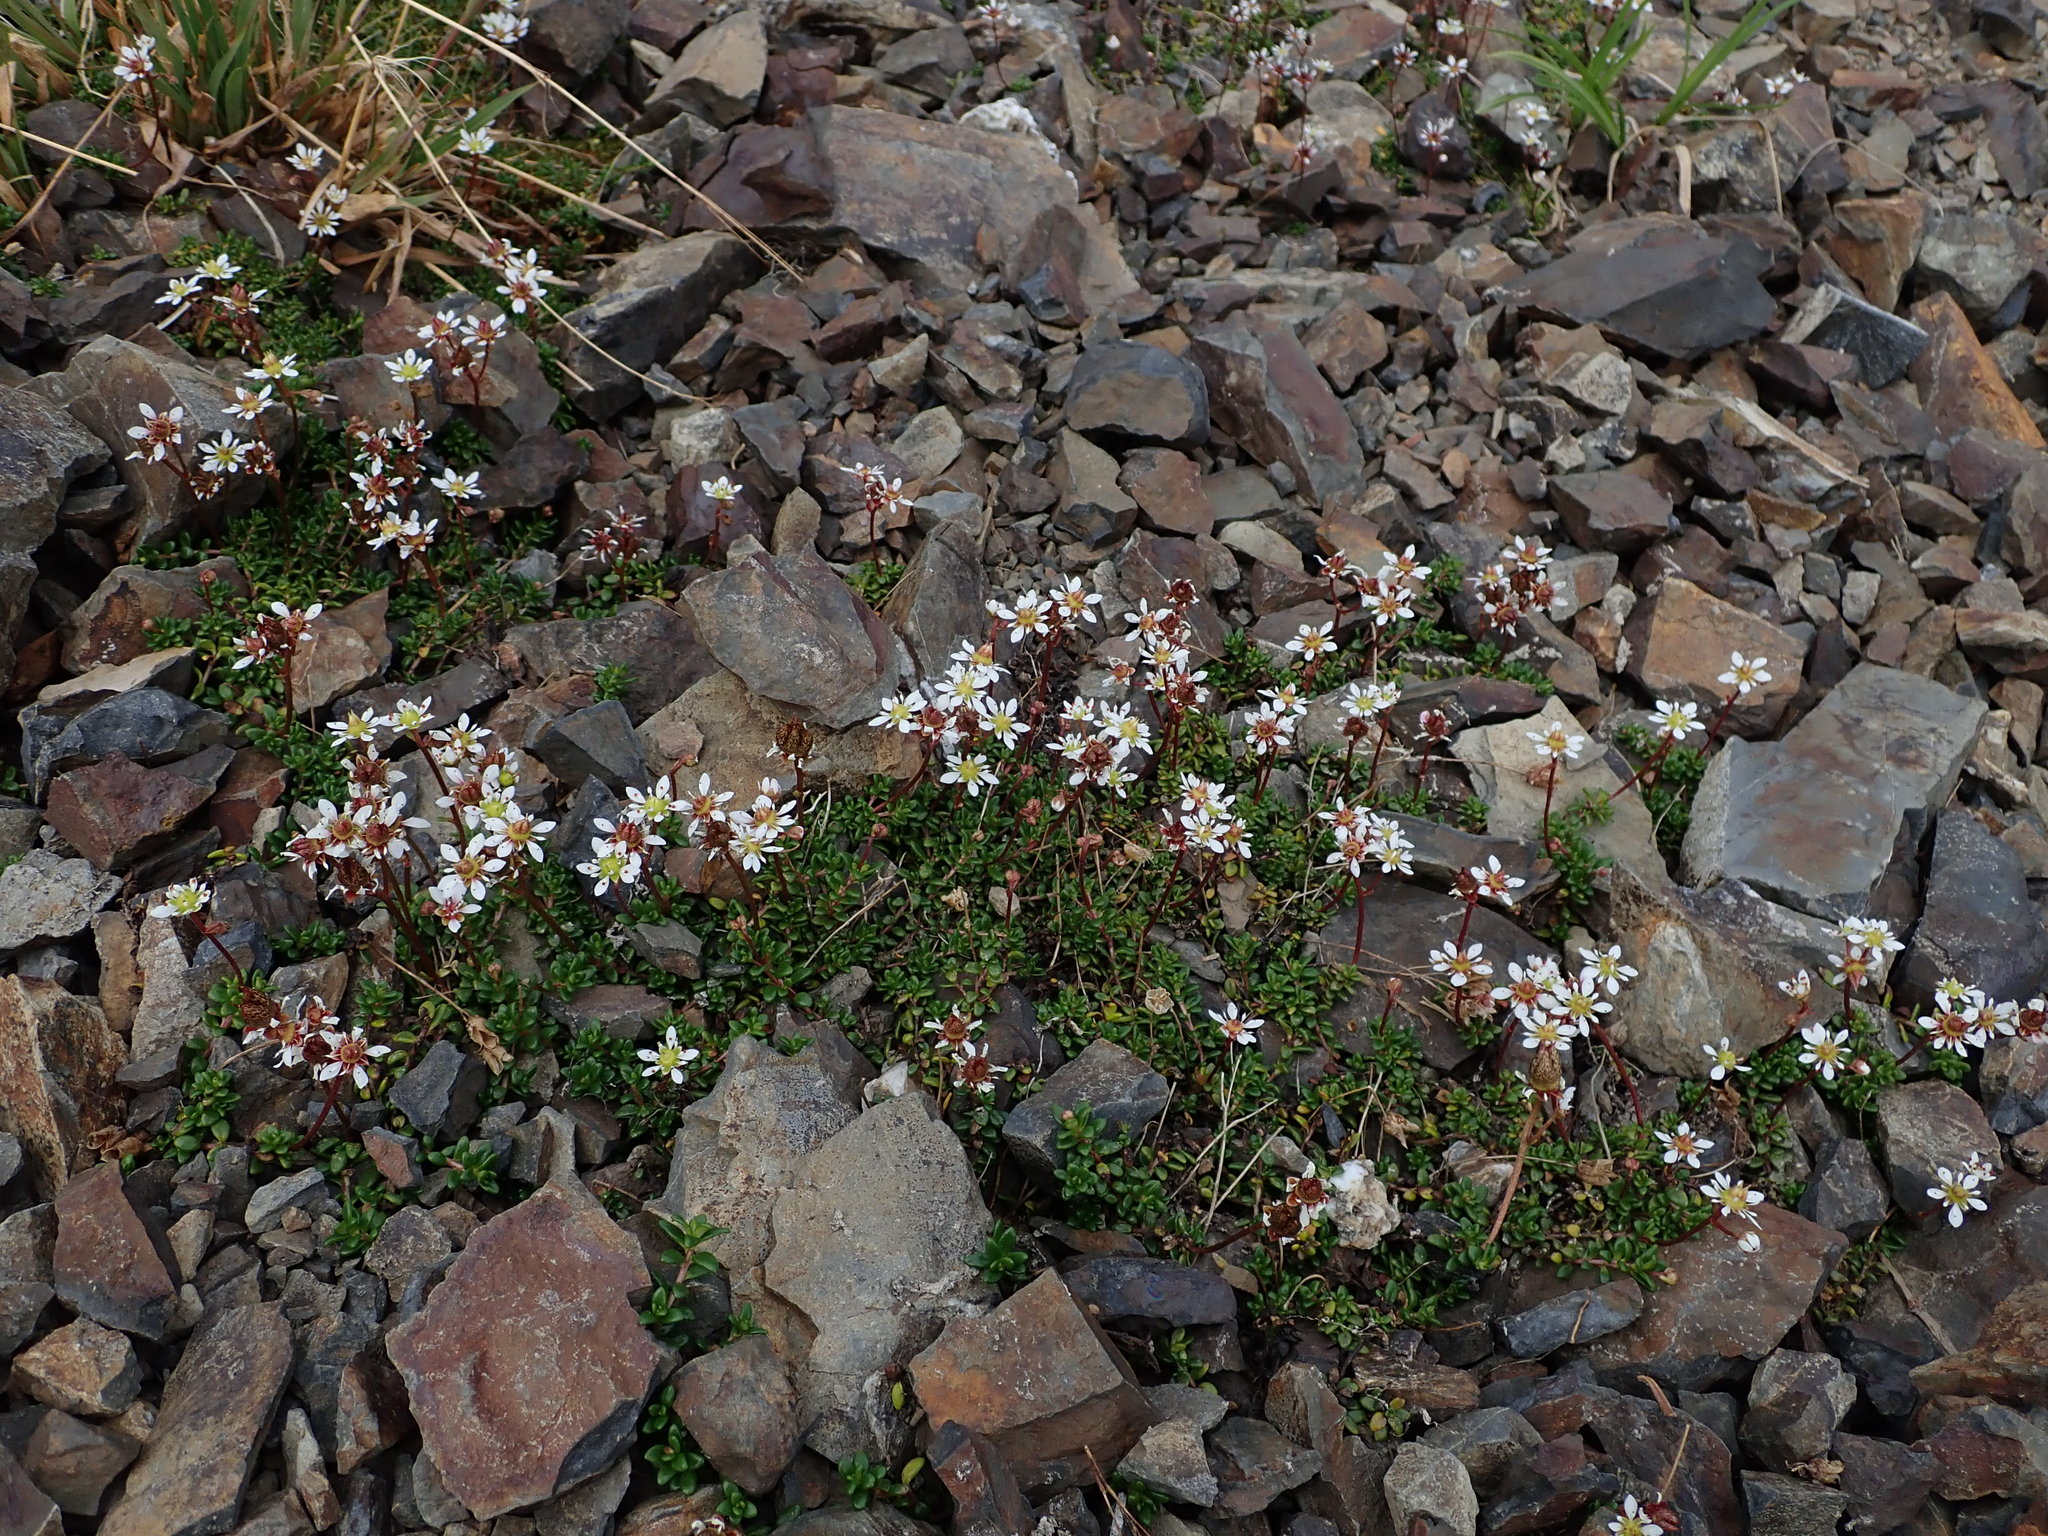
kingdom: Plantae
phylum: Tracheophyta
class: Magnoliopsida
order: Saxifragales
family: Saxifragaceae
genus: Micranthes
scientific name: Micranthes tolmiei
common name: Tolmie's saxifrage
